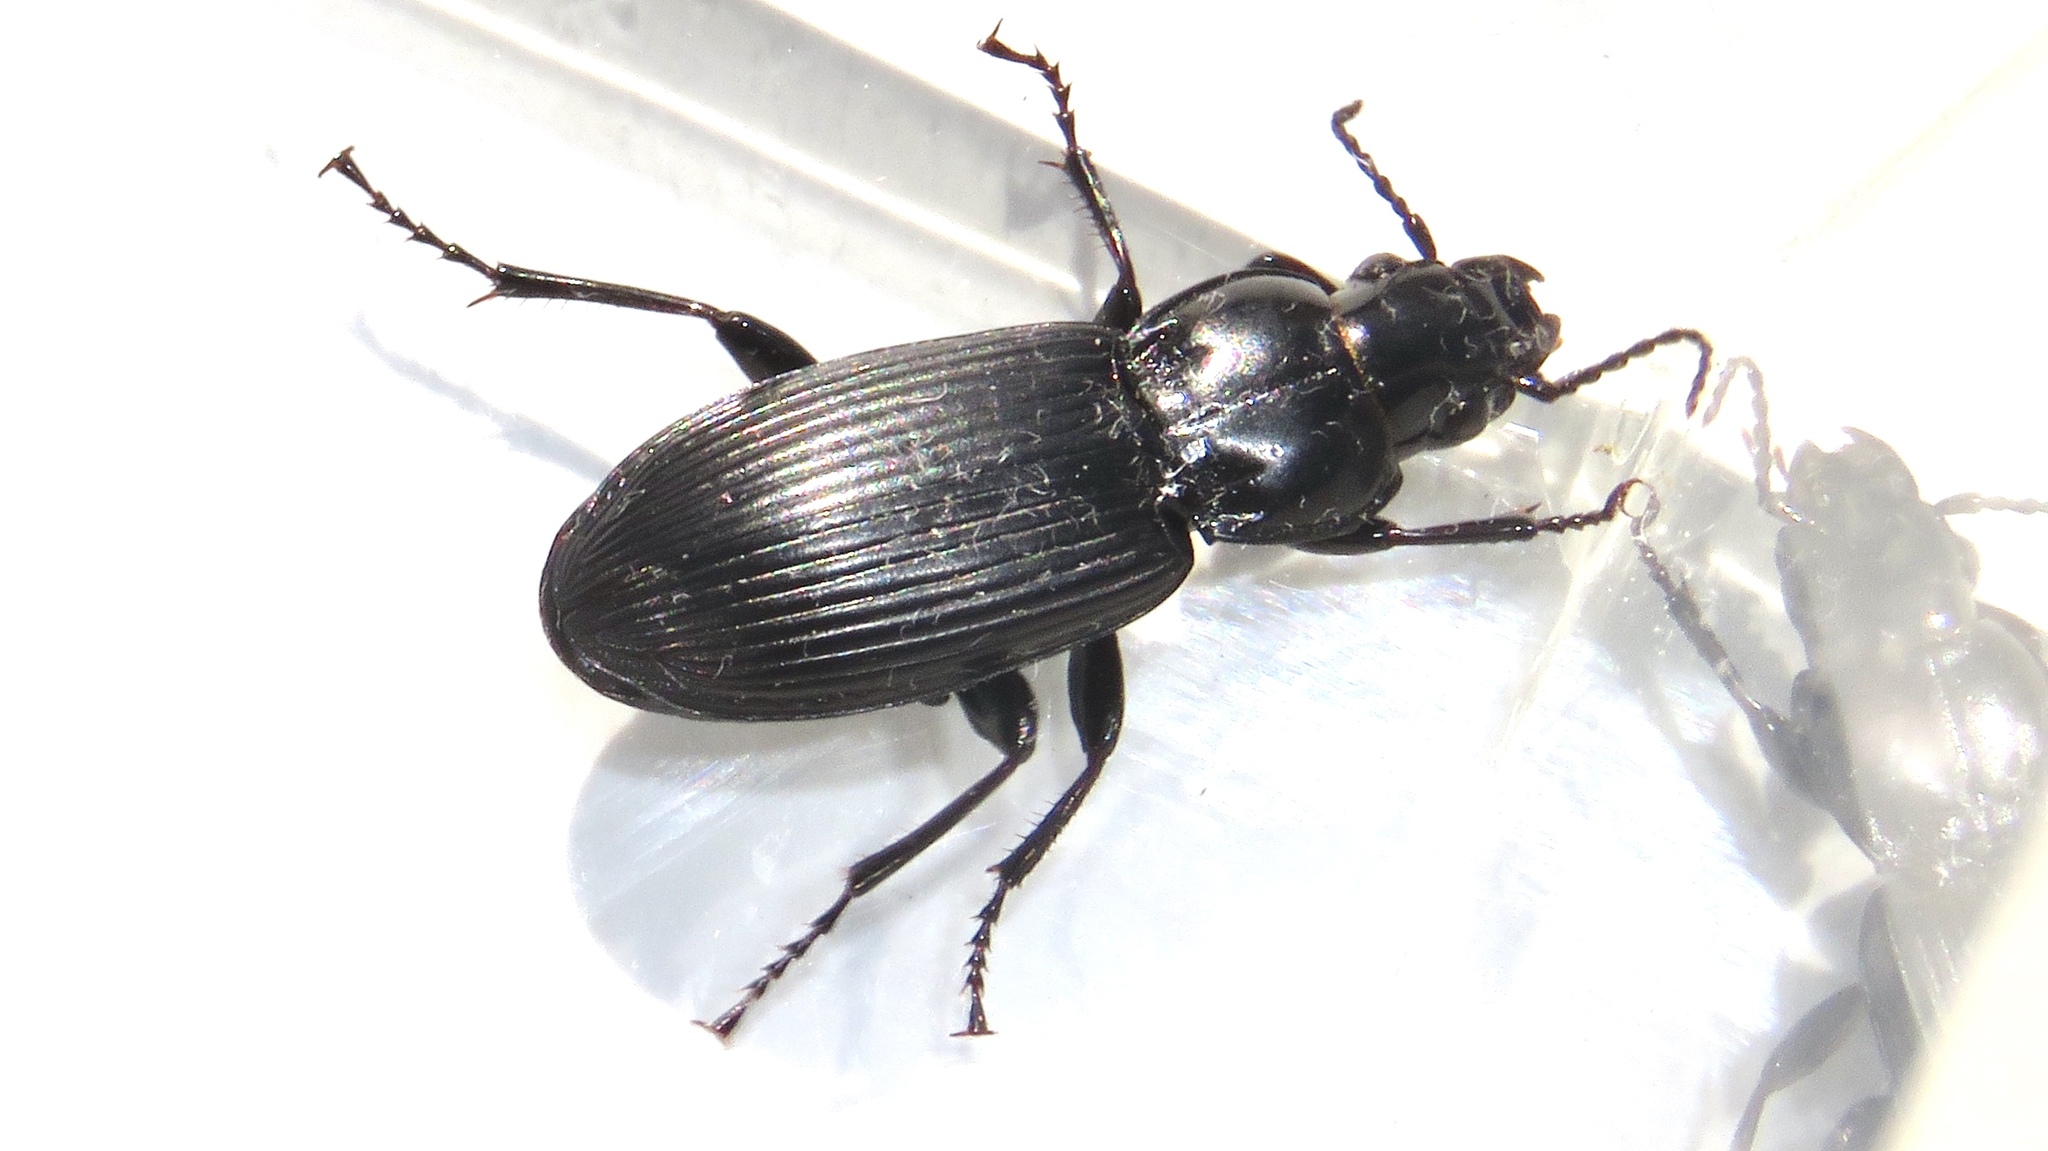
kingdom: Animalia
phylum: Arthropoda
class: Insecta
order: Coleoptera
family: Carabidae
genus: Pterostichus
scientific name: Pterostichus melanarius
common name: European dark harp ground beetle
